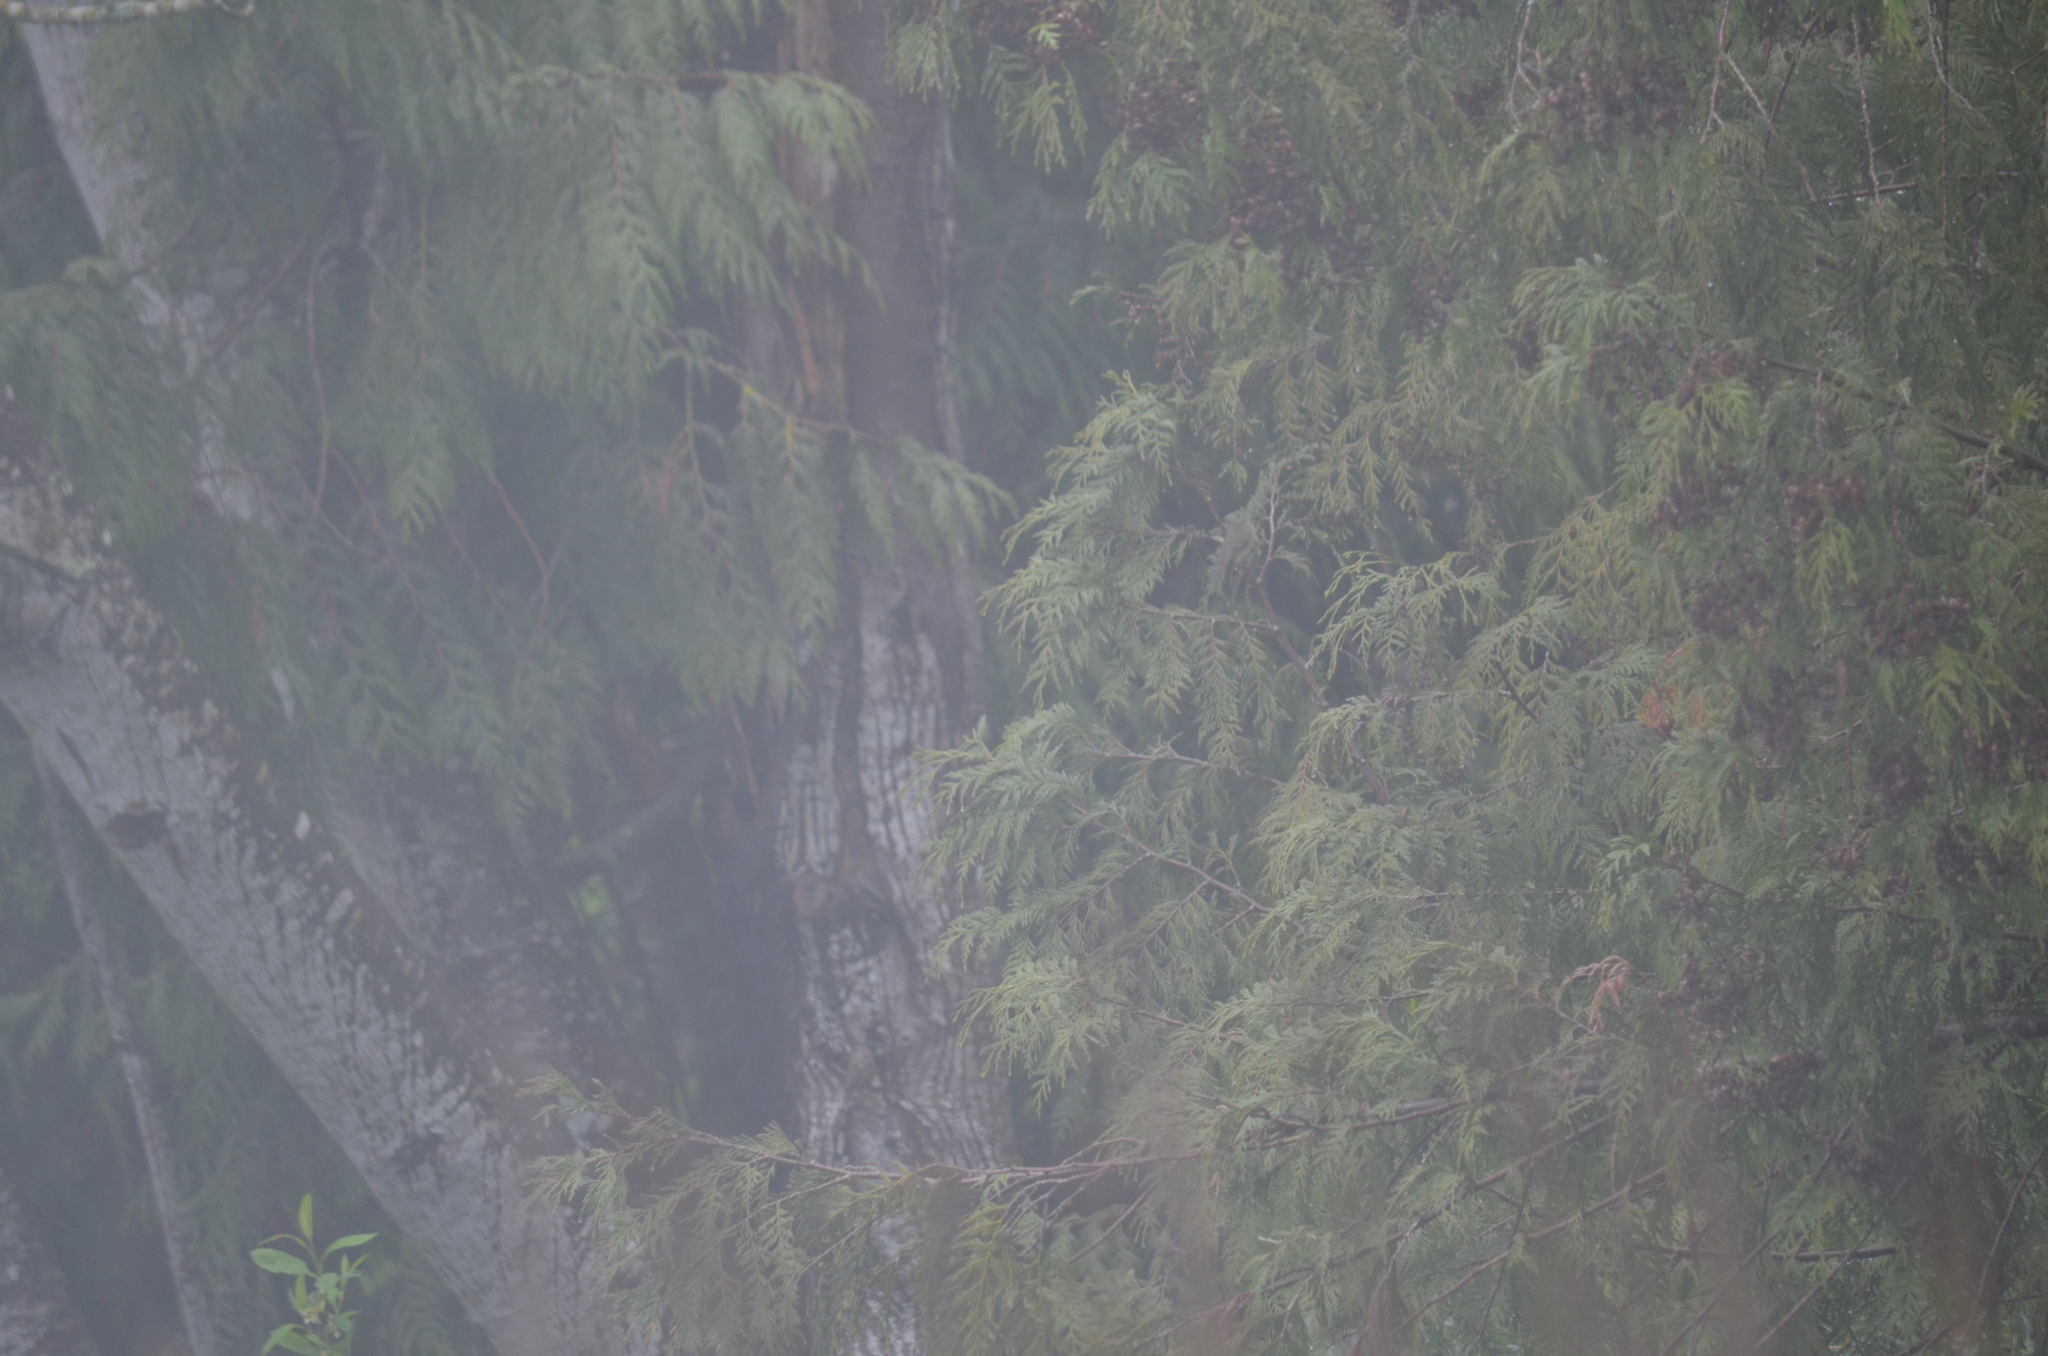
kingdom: Animalia
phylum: Chordata
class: Aves
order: Passeriformes
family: Regulidae
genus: Regulus
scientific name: Regulus calendula
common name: Ruby-crowned kinglet
